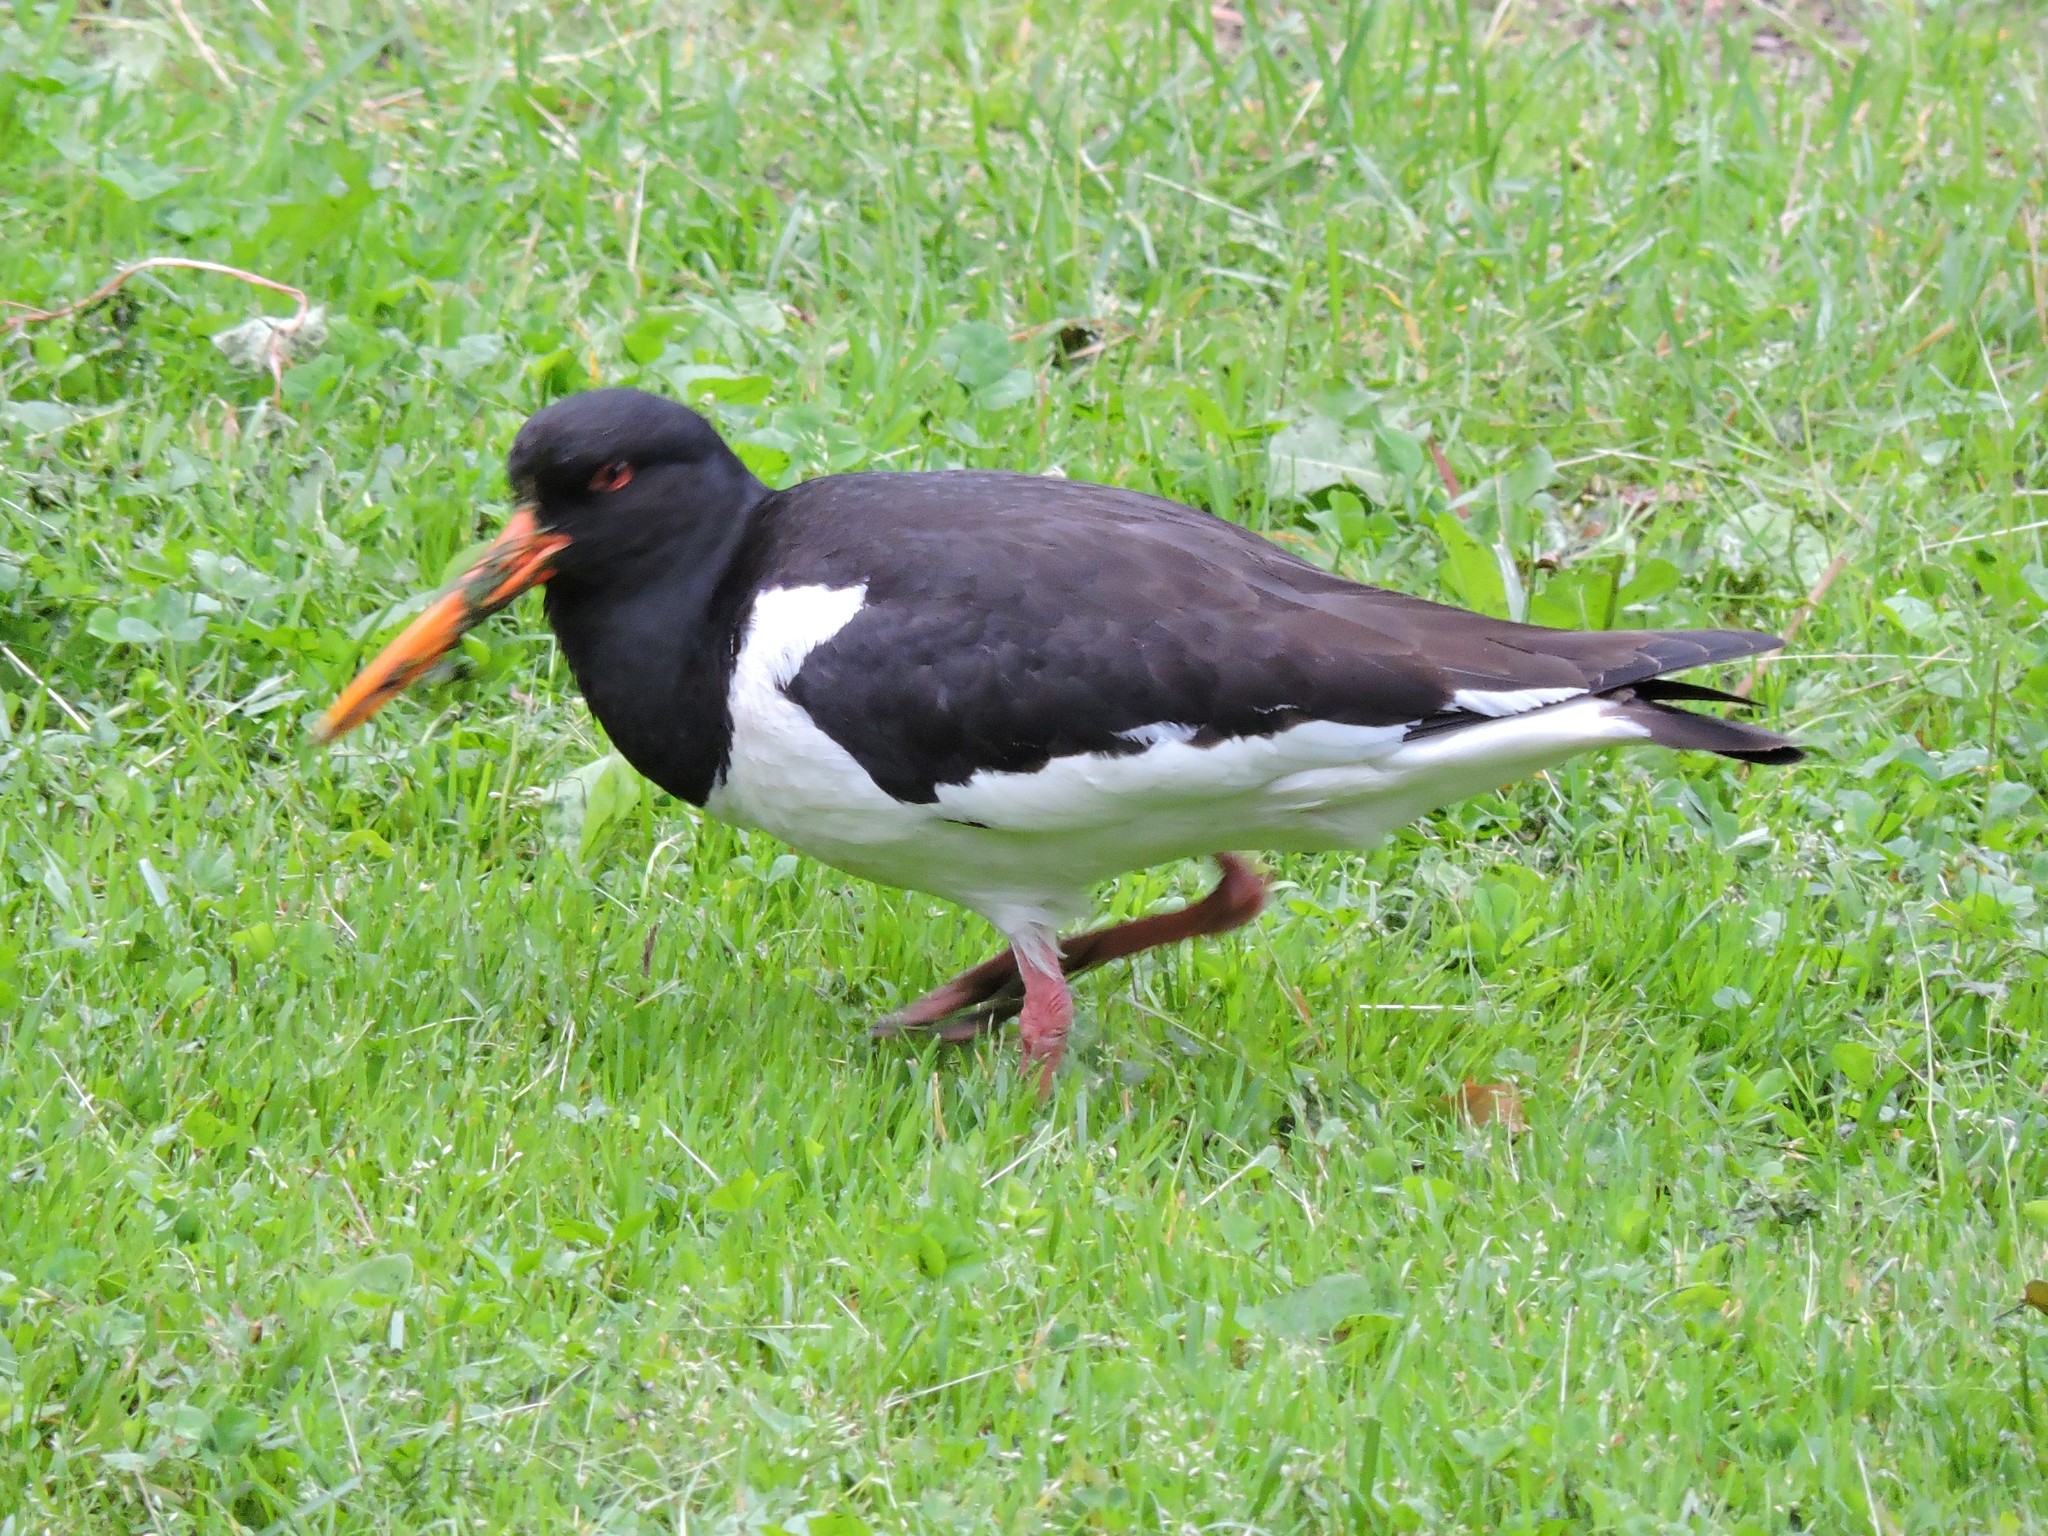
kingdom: Animalia
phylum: Chordata
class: Aves
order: Charadriiformes
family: Haematopodidae
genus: Haematopus
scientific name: Haematopus ostralegus
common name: Eurasian oystercatcher
